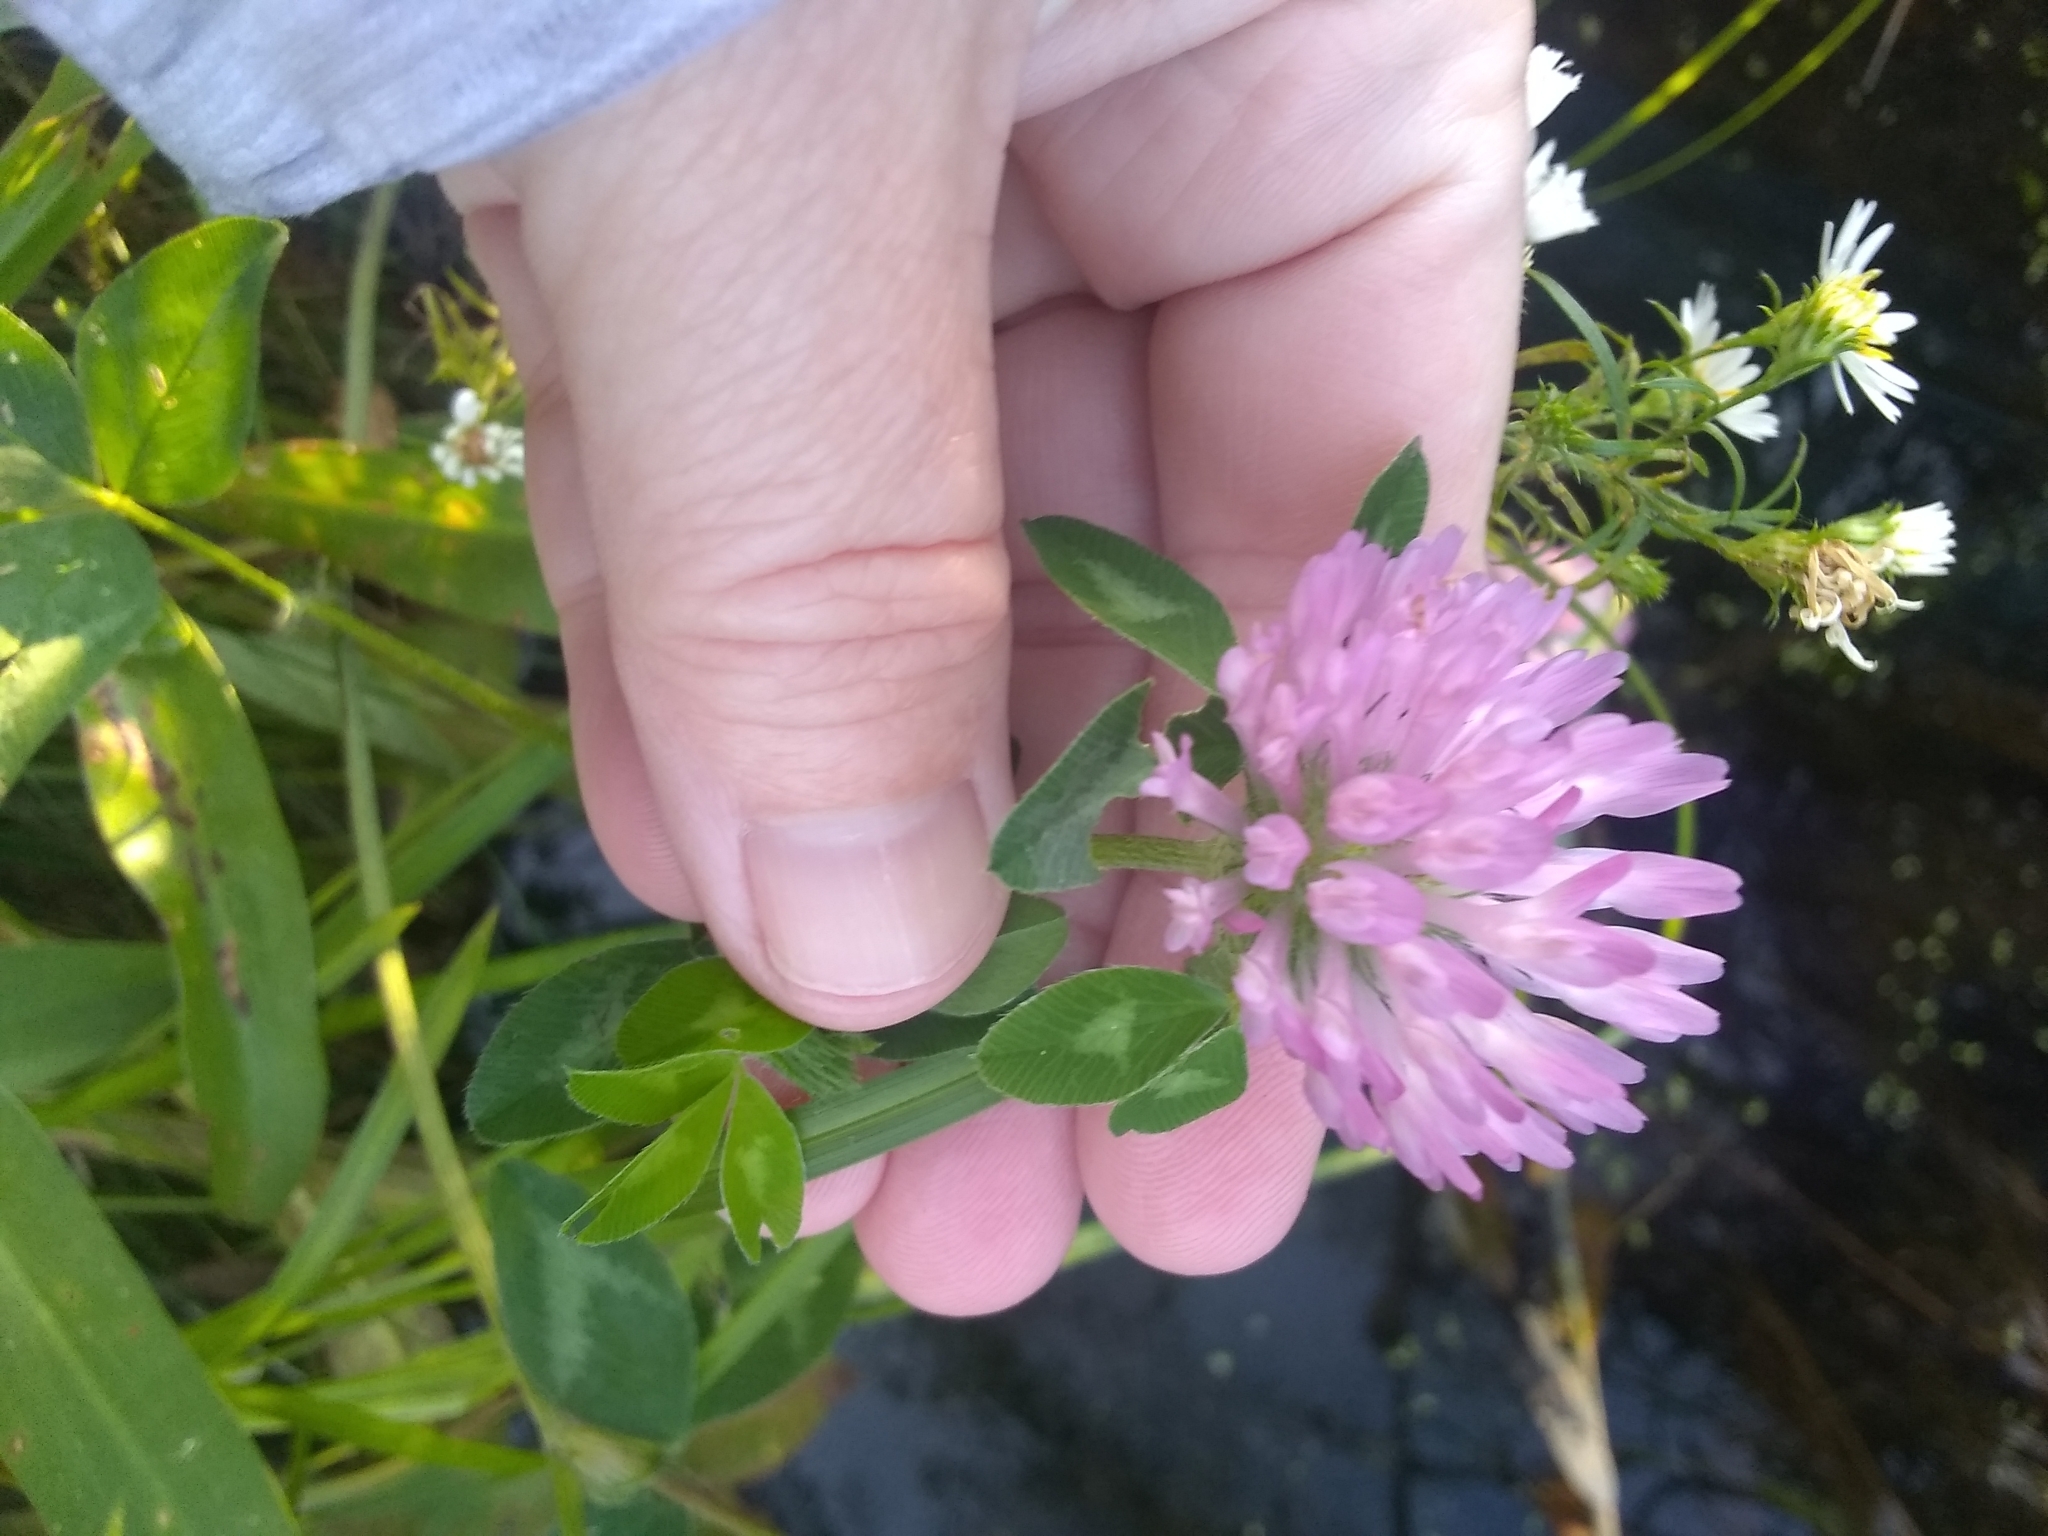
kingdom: Plantae
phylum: Tracheophyta
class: Magnoliopsida
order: Fabales
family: Fabaceae
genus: Trifolium
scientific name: Trifolium pratense
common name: Red clover
